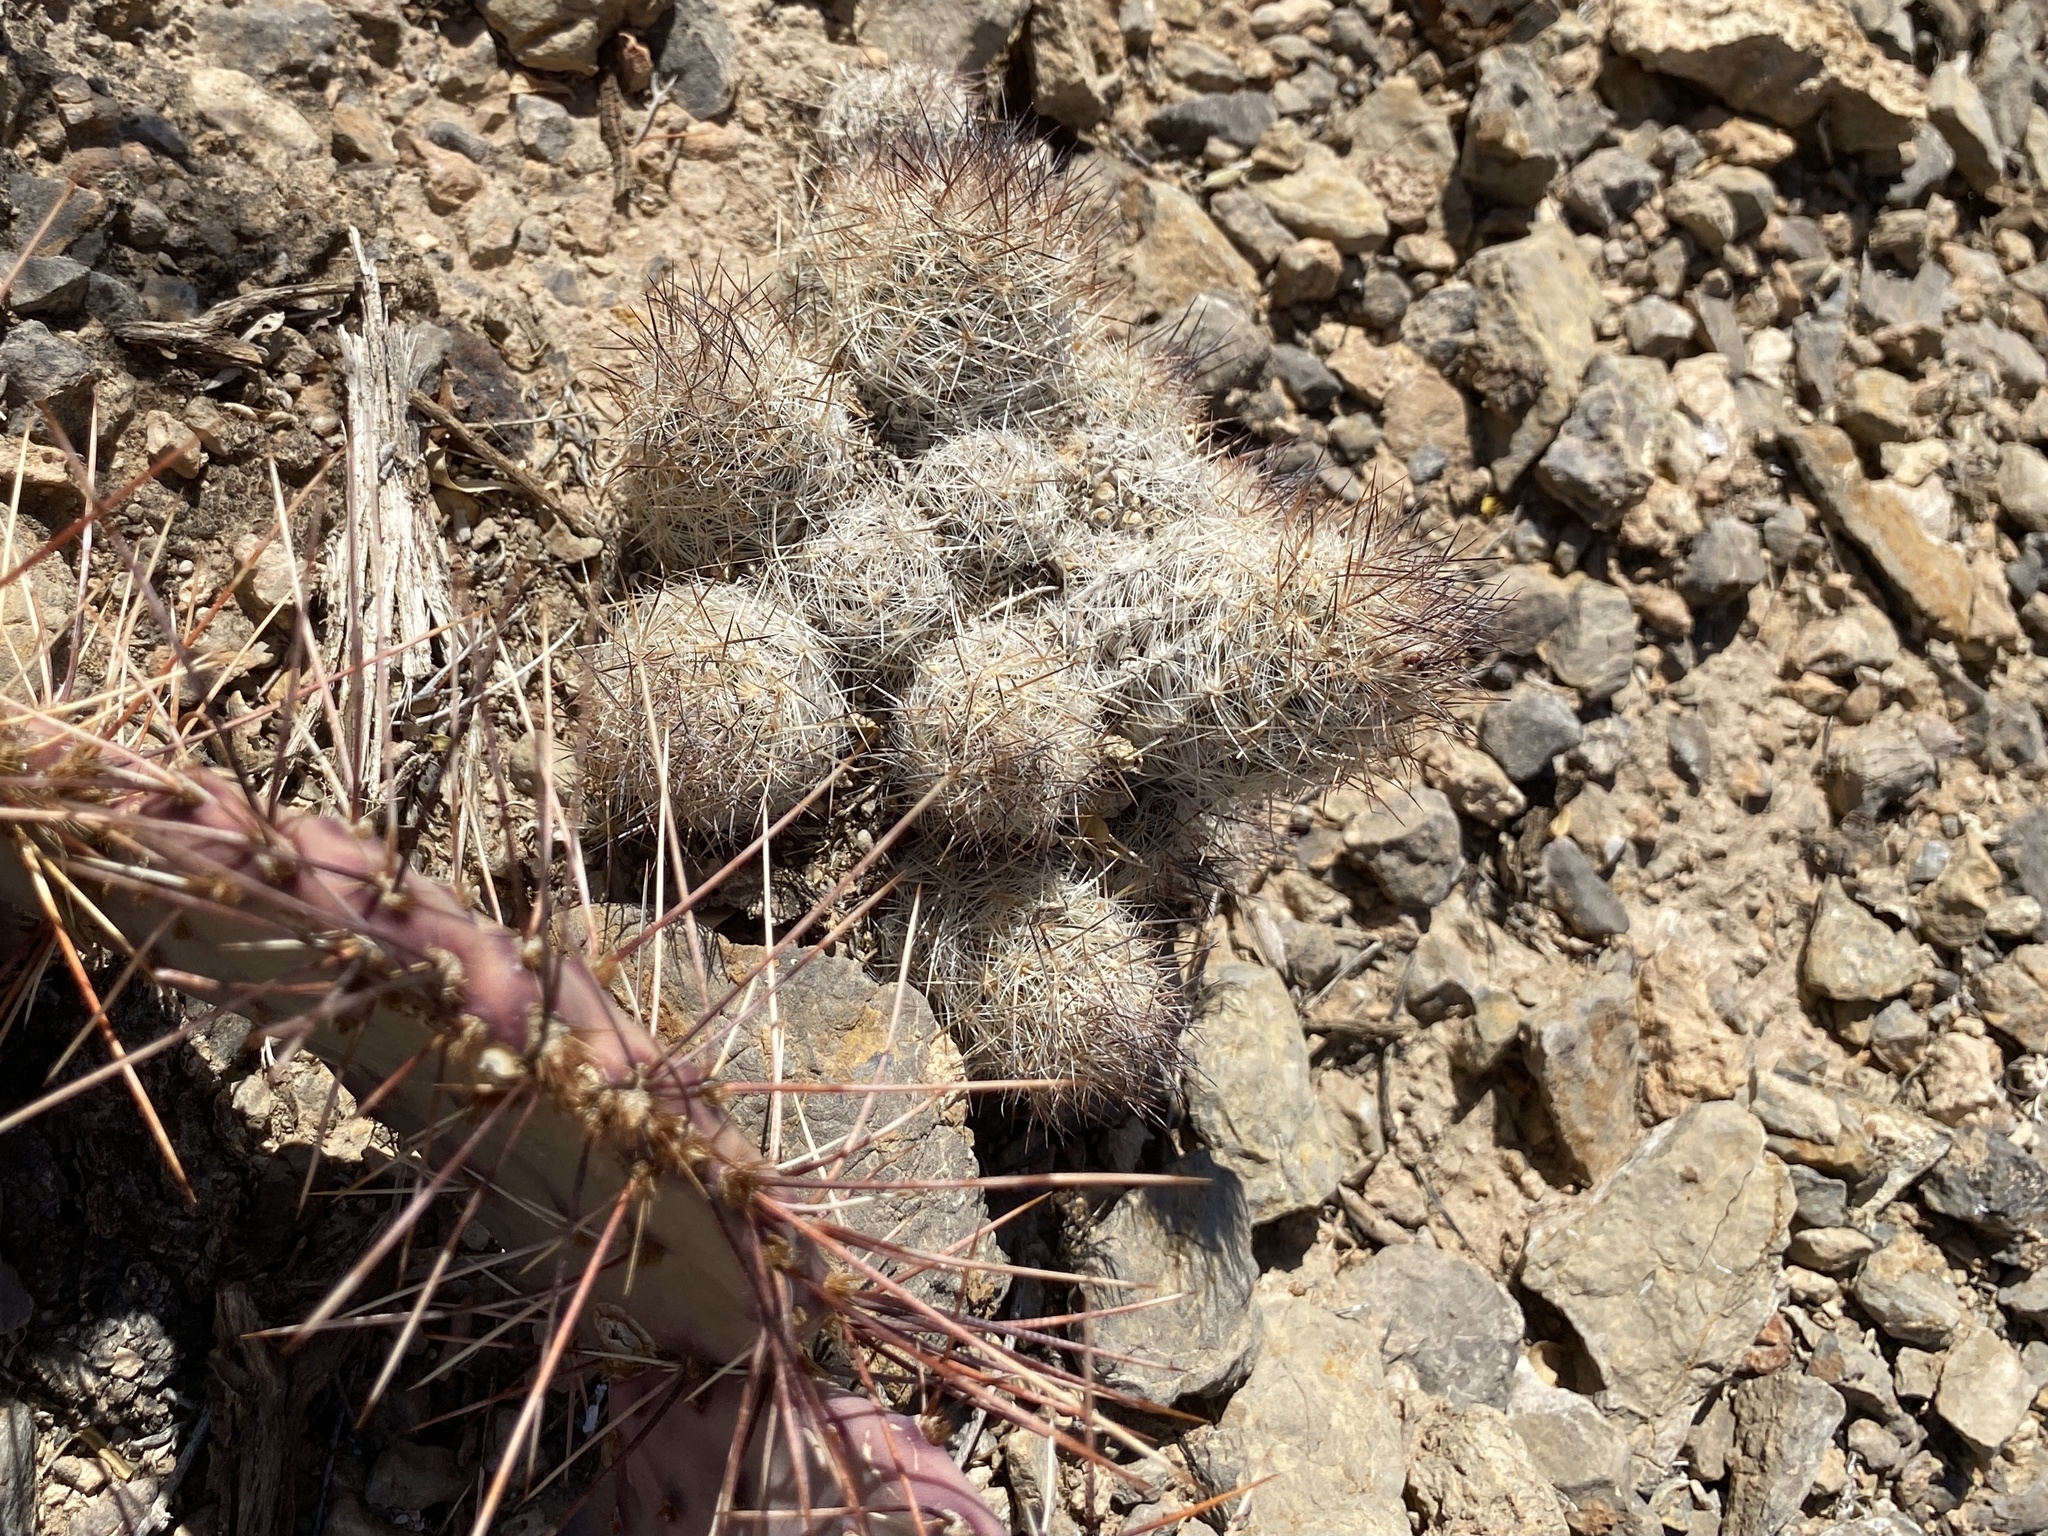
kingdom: Plantae
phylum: Tracheophyta
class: Magnoliopsida
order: Caryophyllales
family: Cactaceae
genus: Pelecyphora
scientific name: Pelecyphora tuberculosa
